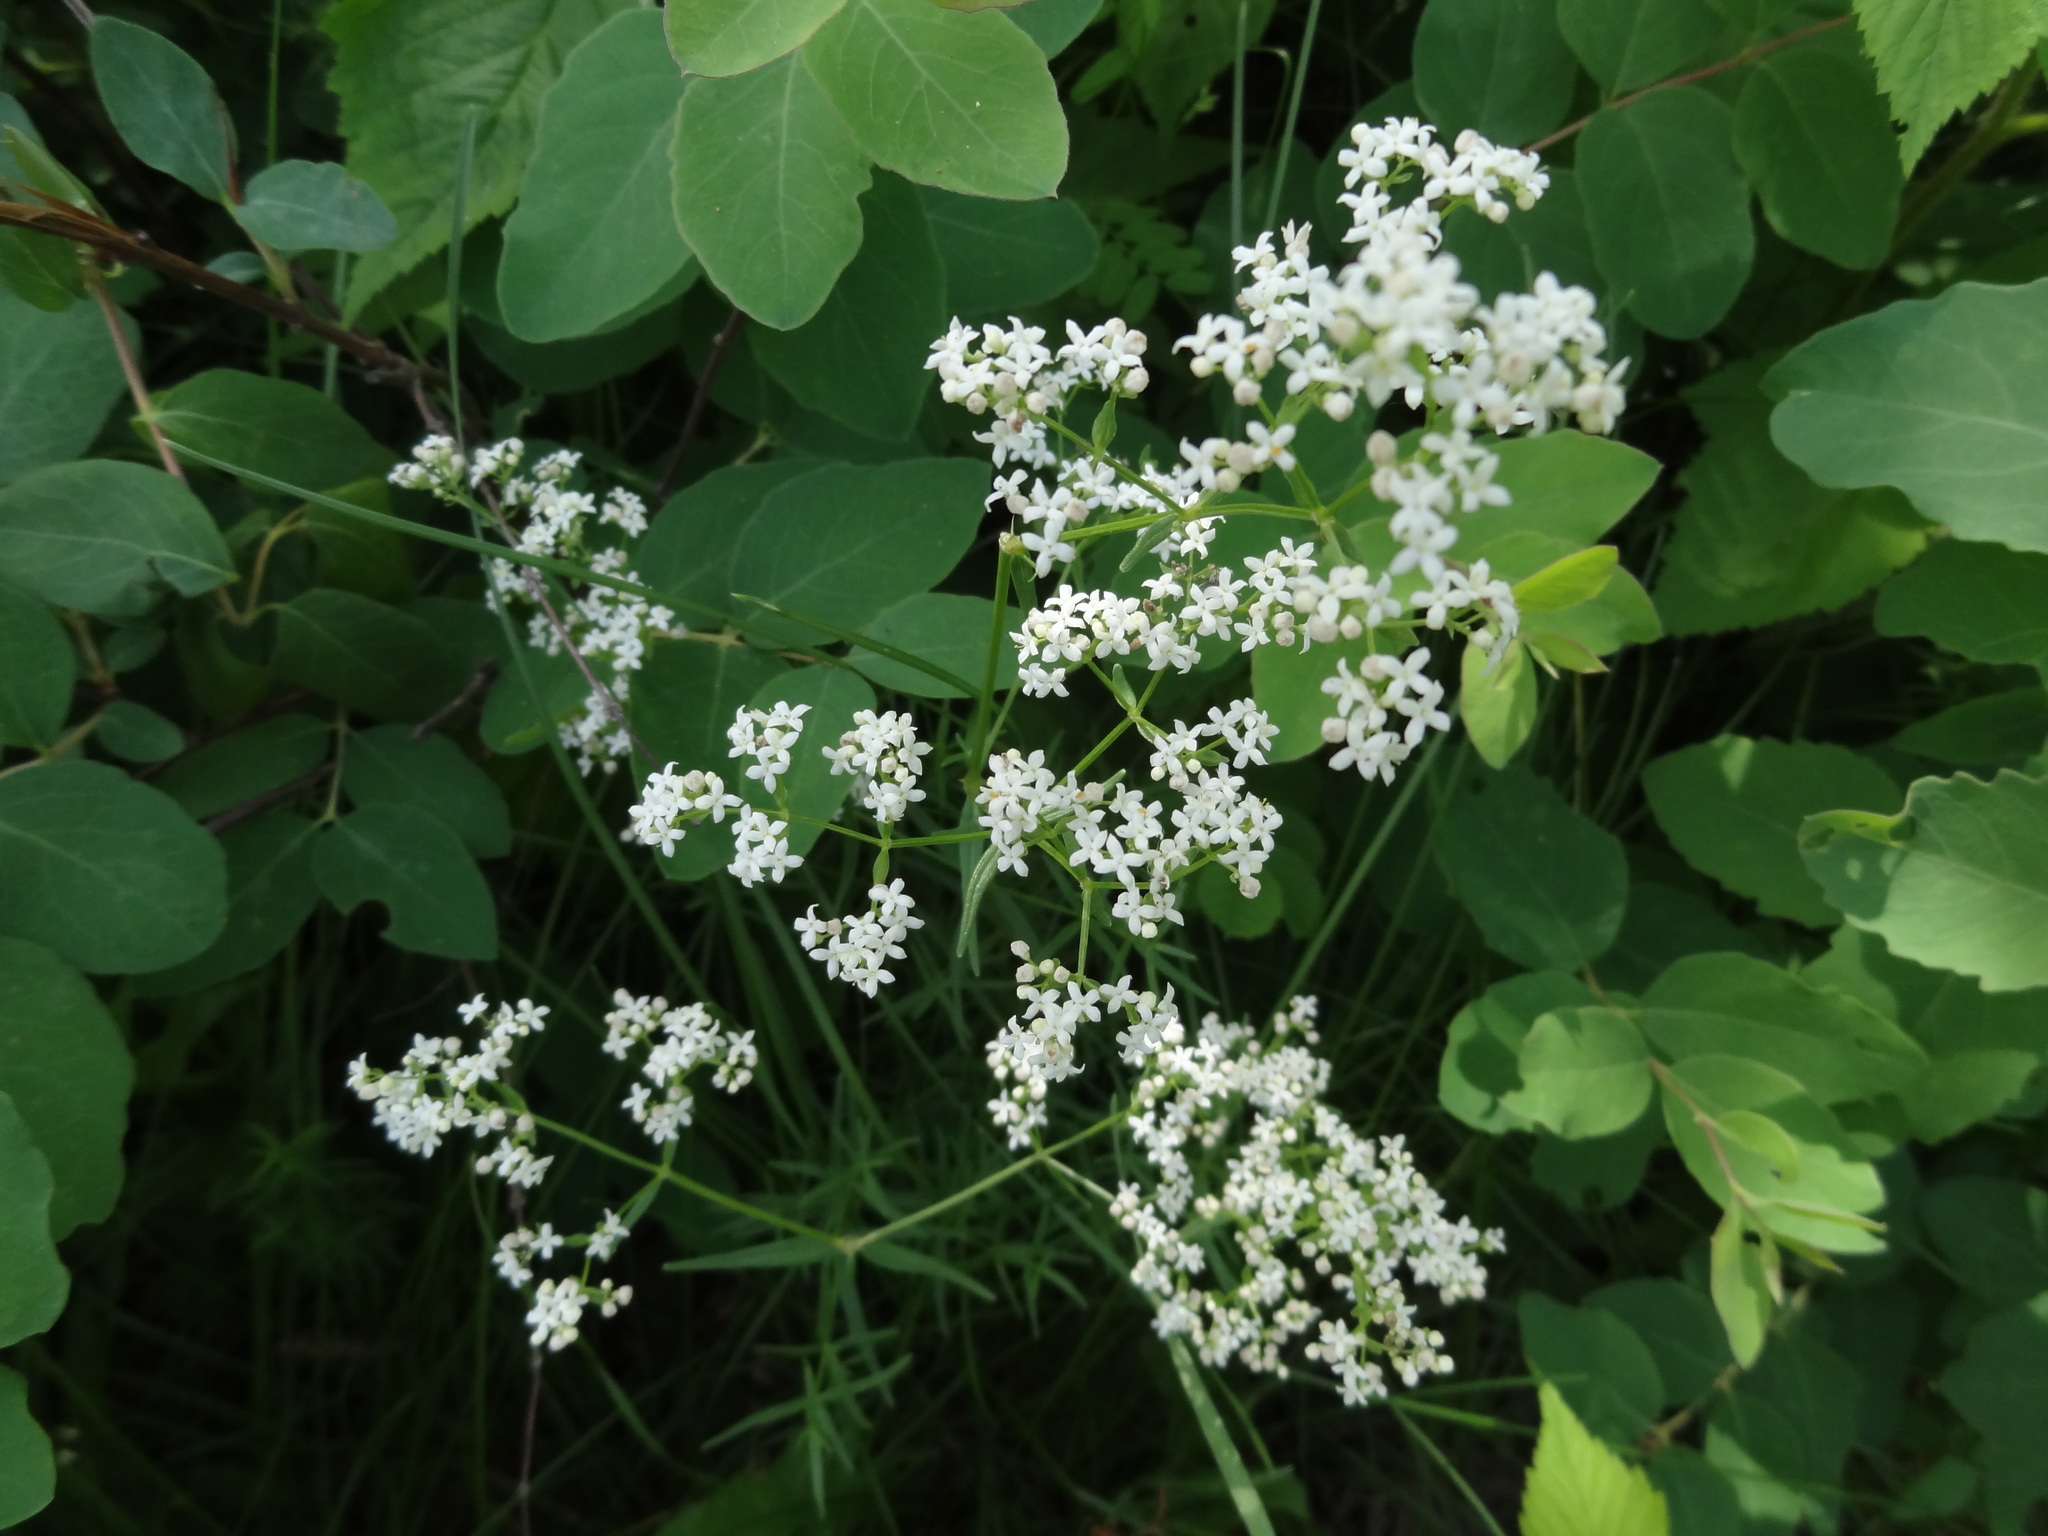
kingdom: Plantae
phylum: Tracheophyta
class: Magnoliopsida
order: Gentianales
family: Rubiaceae
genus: Galium
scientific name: Galium boreale
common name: Northern bedstraw
